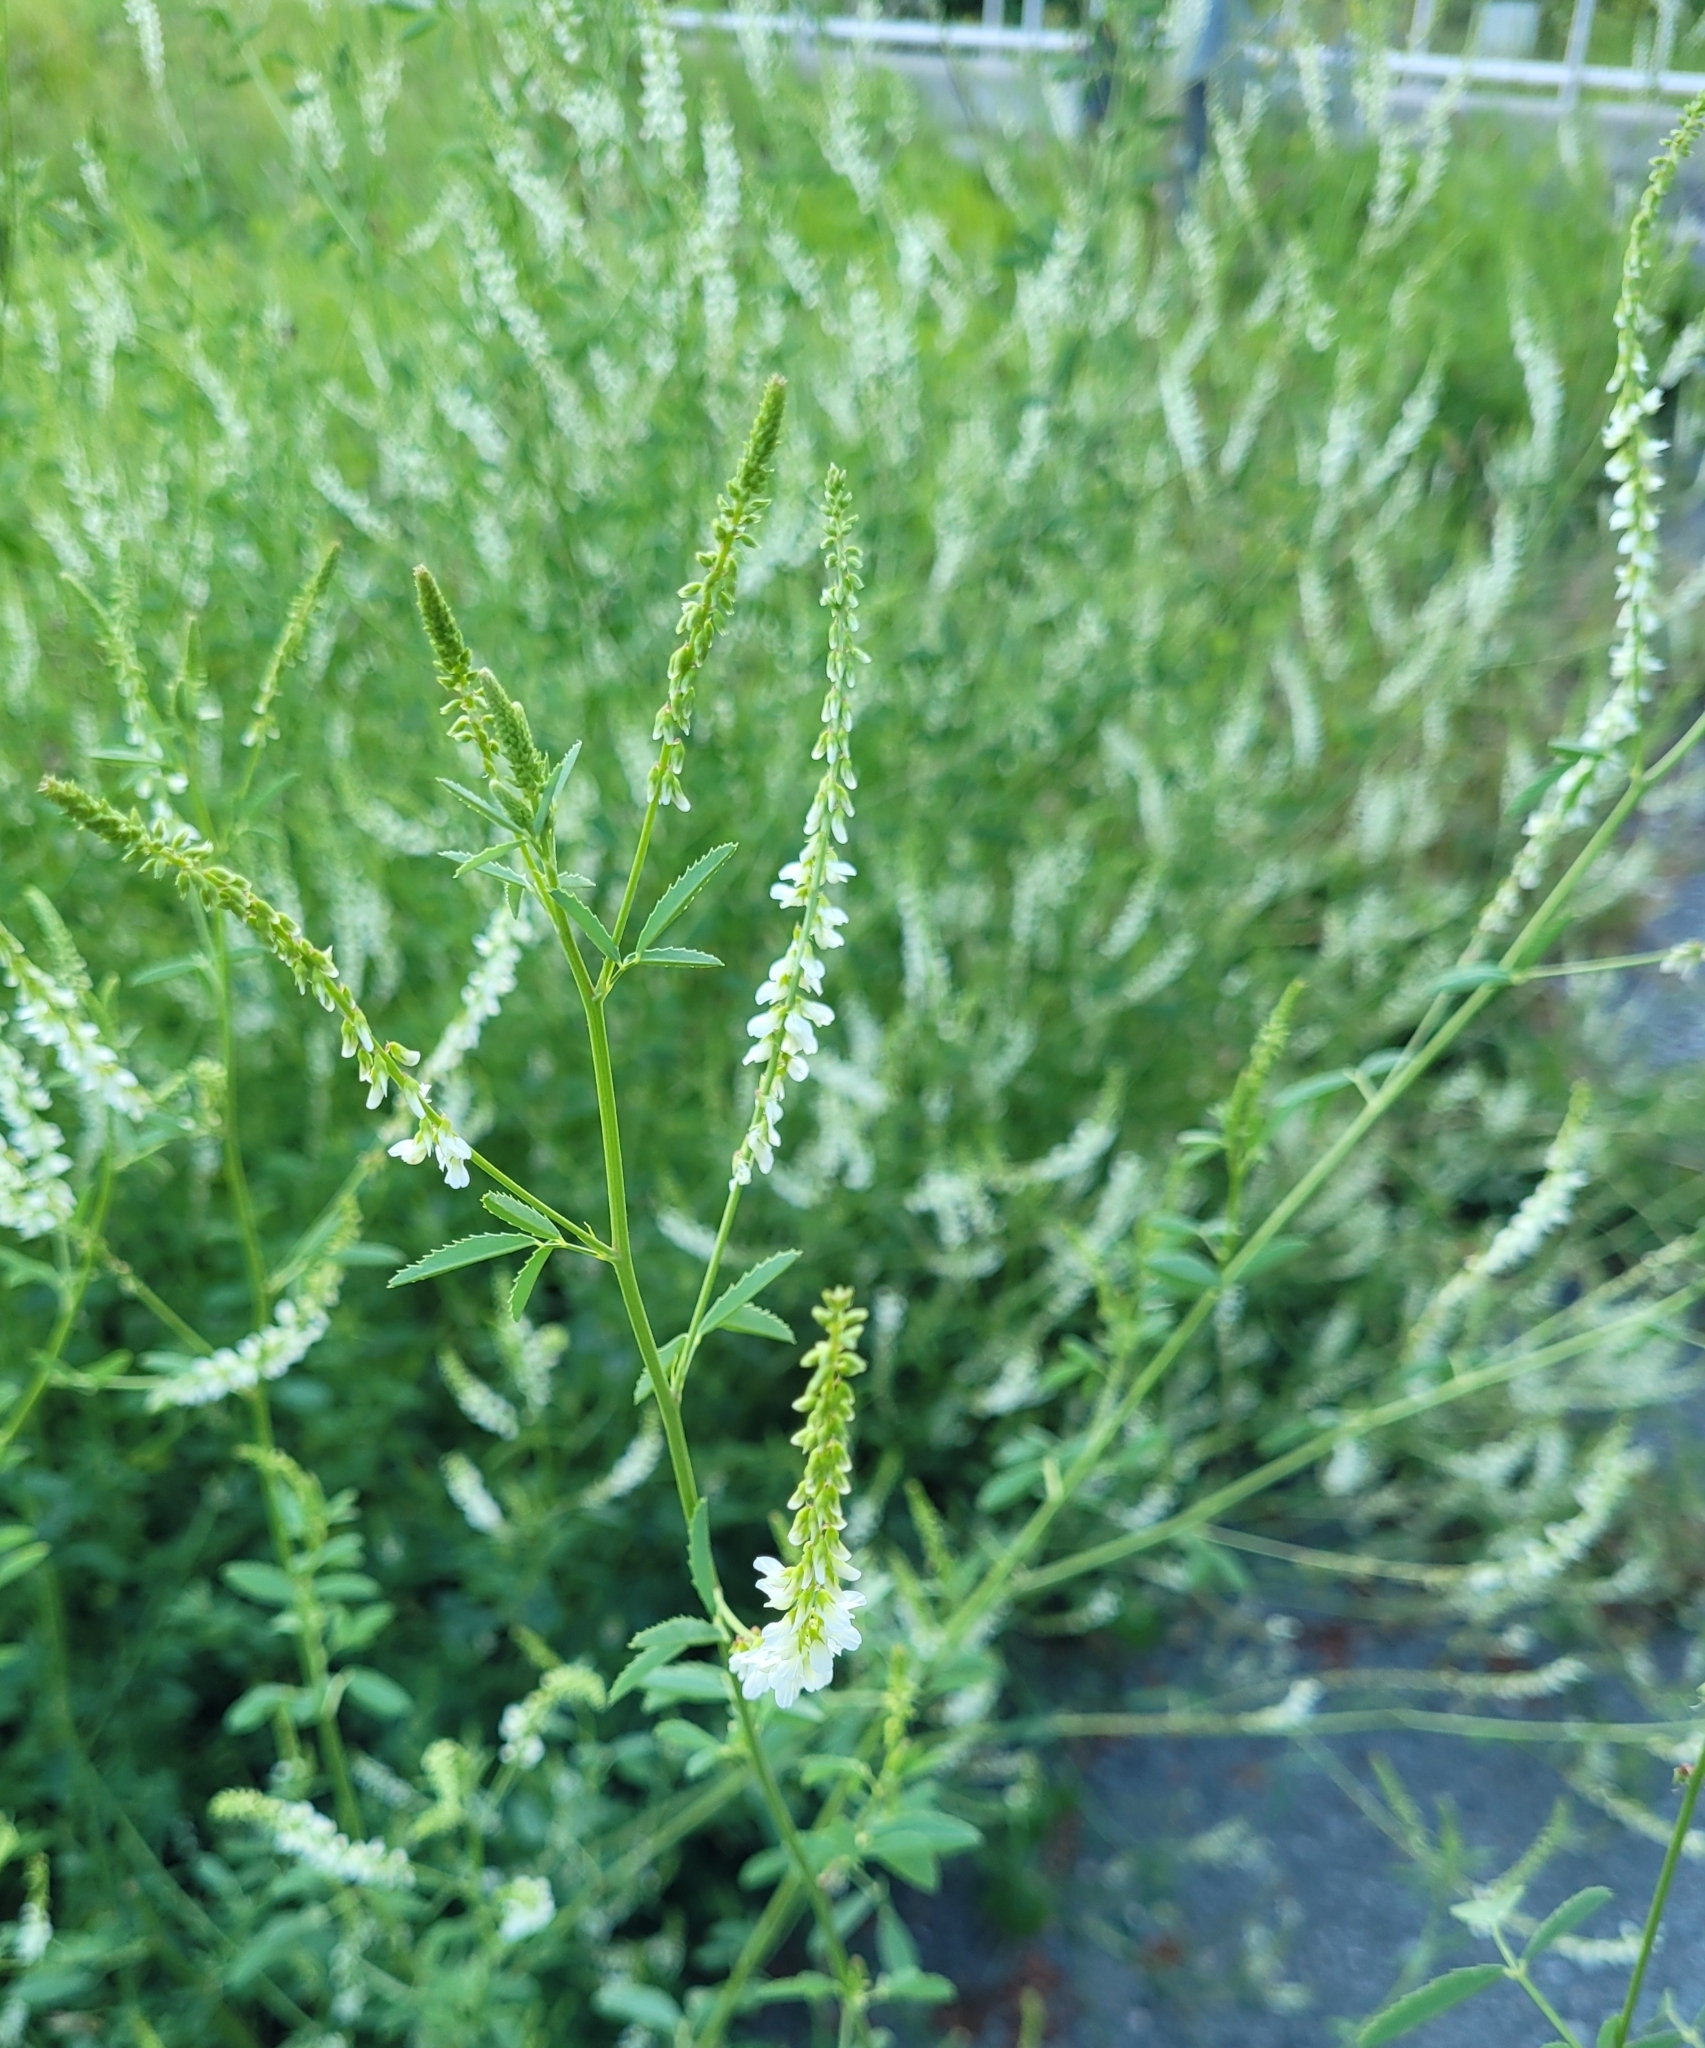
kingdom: Plantae
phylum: Tracheophyta
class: Magnoliopsida
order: Fabales
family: Fabaceae
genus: Melilotus
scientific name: Melilotus albus
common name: White melilot
